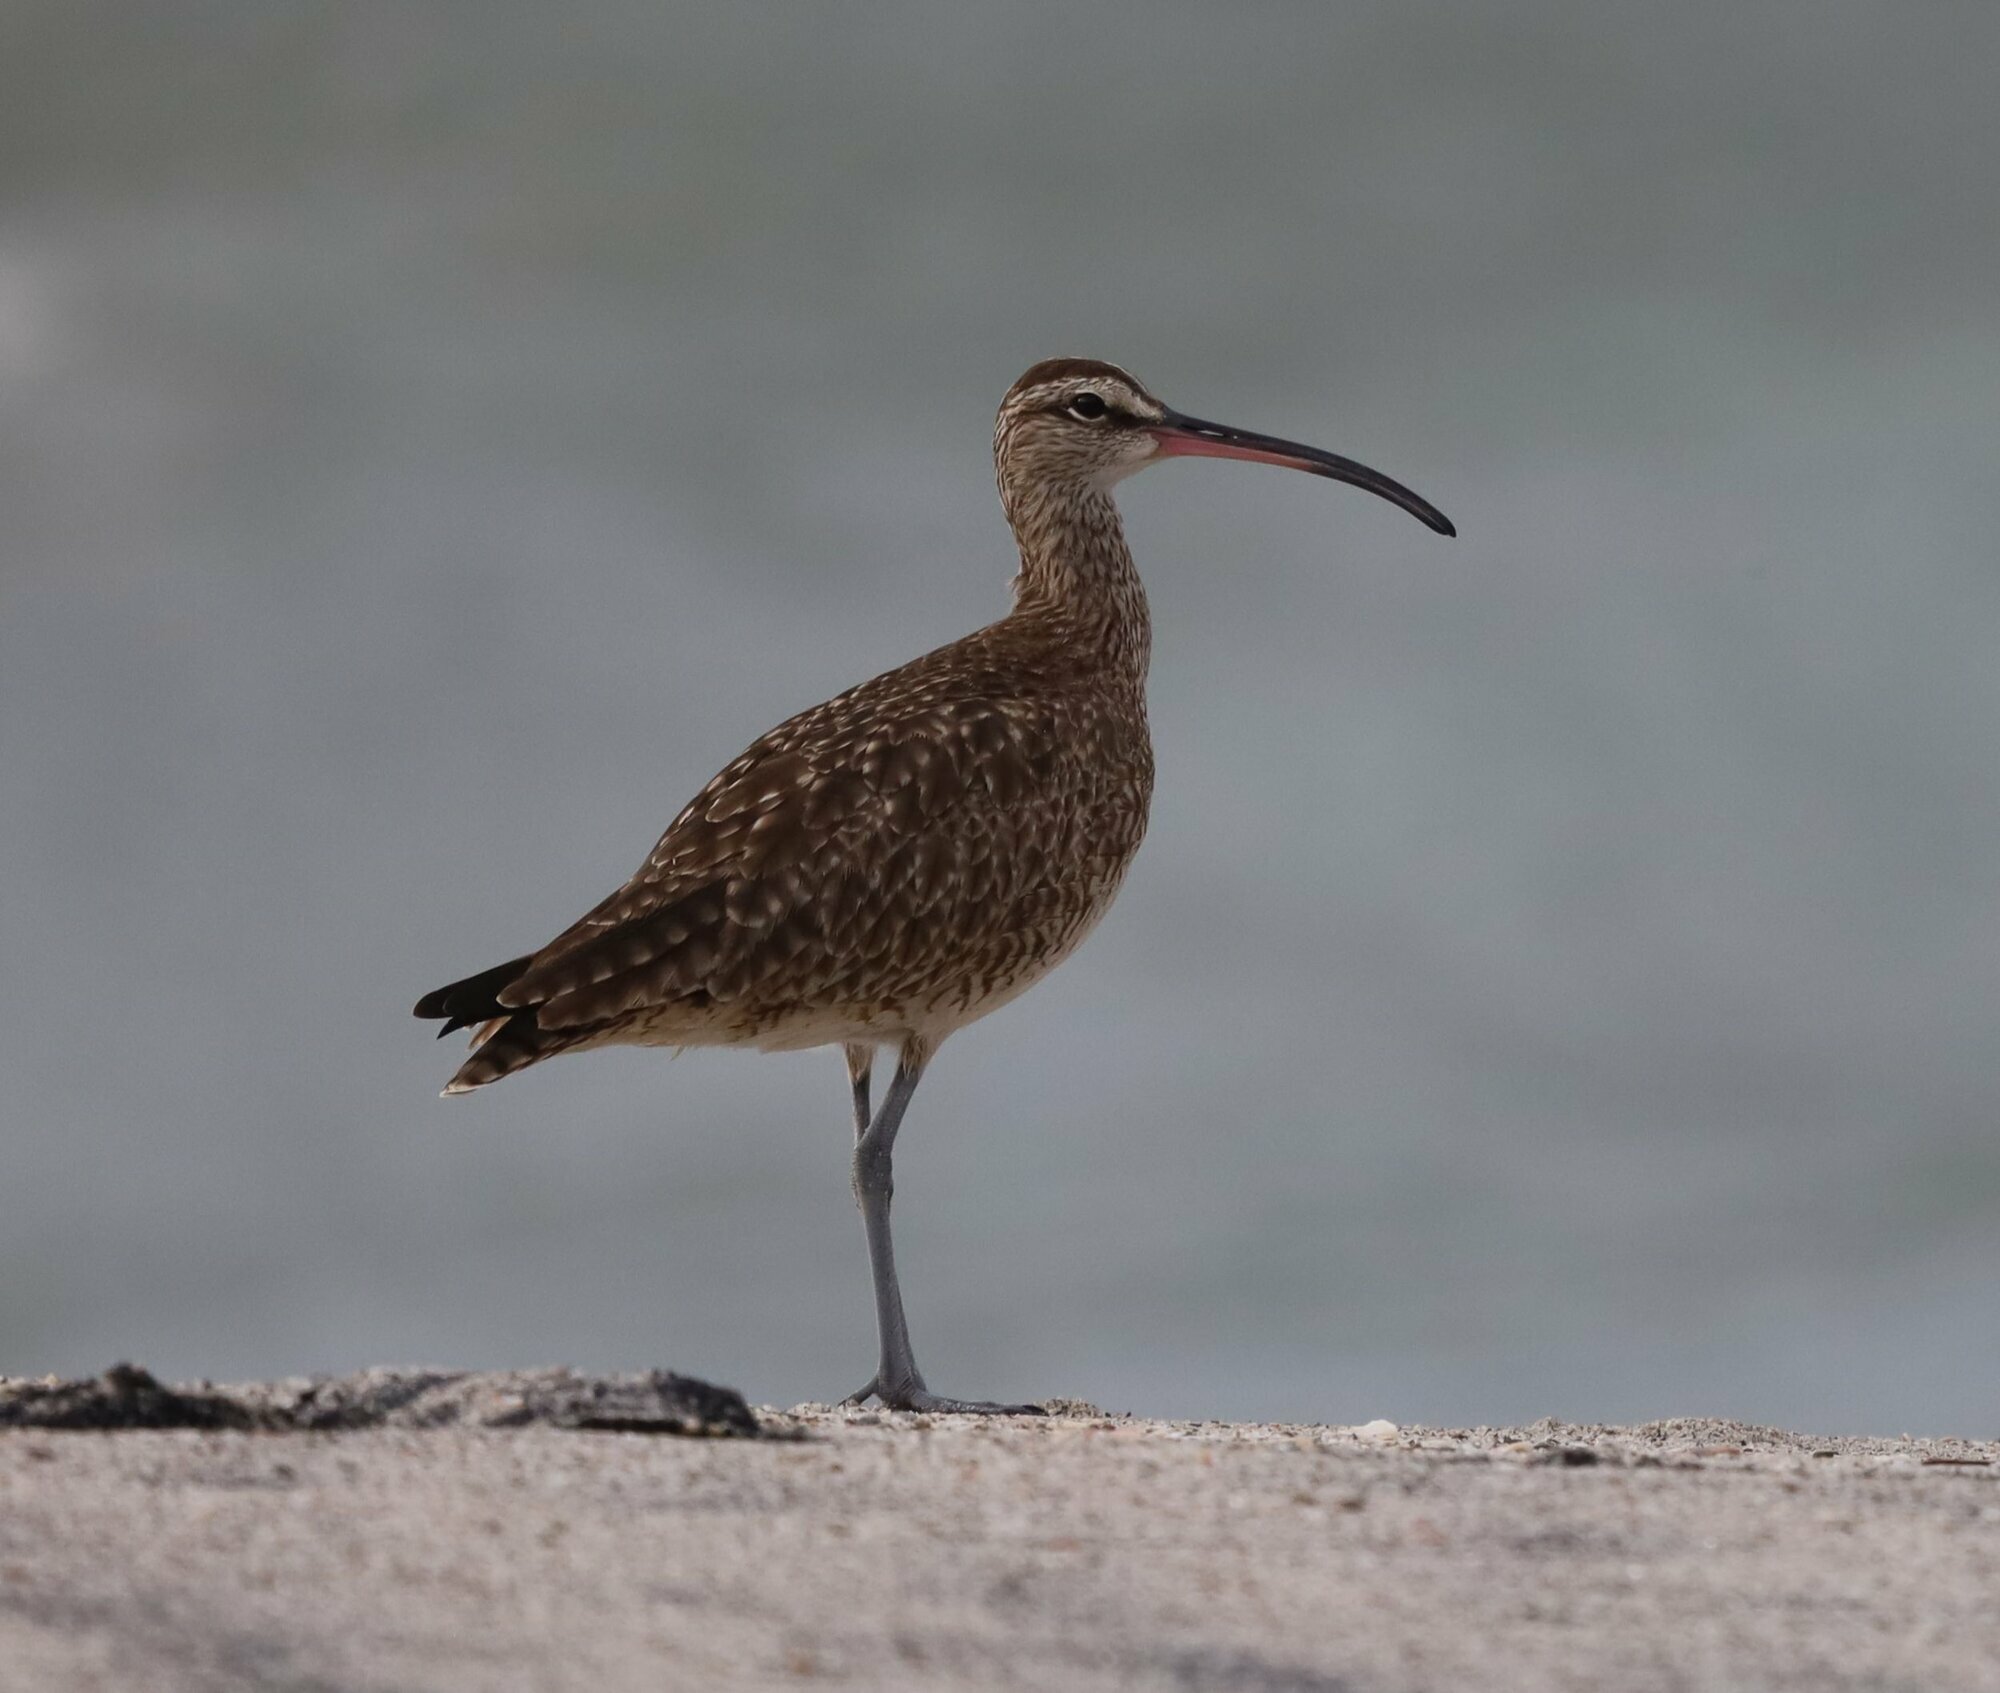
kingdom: Animalia
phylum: Chordata
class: Aves
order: Charadriiformes
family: Scolopacidae
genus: Numenius
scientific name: Numenius phaeopus
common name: Whimbrel
